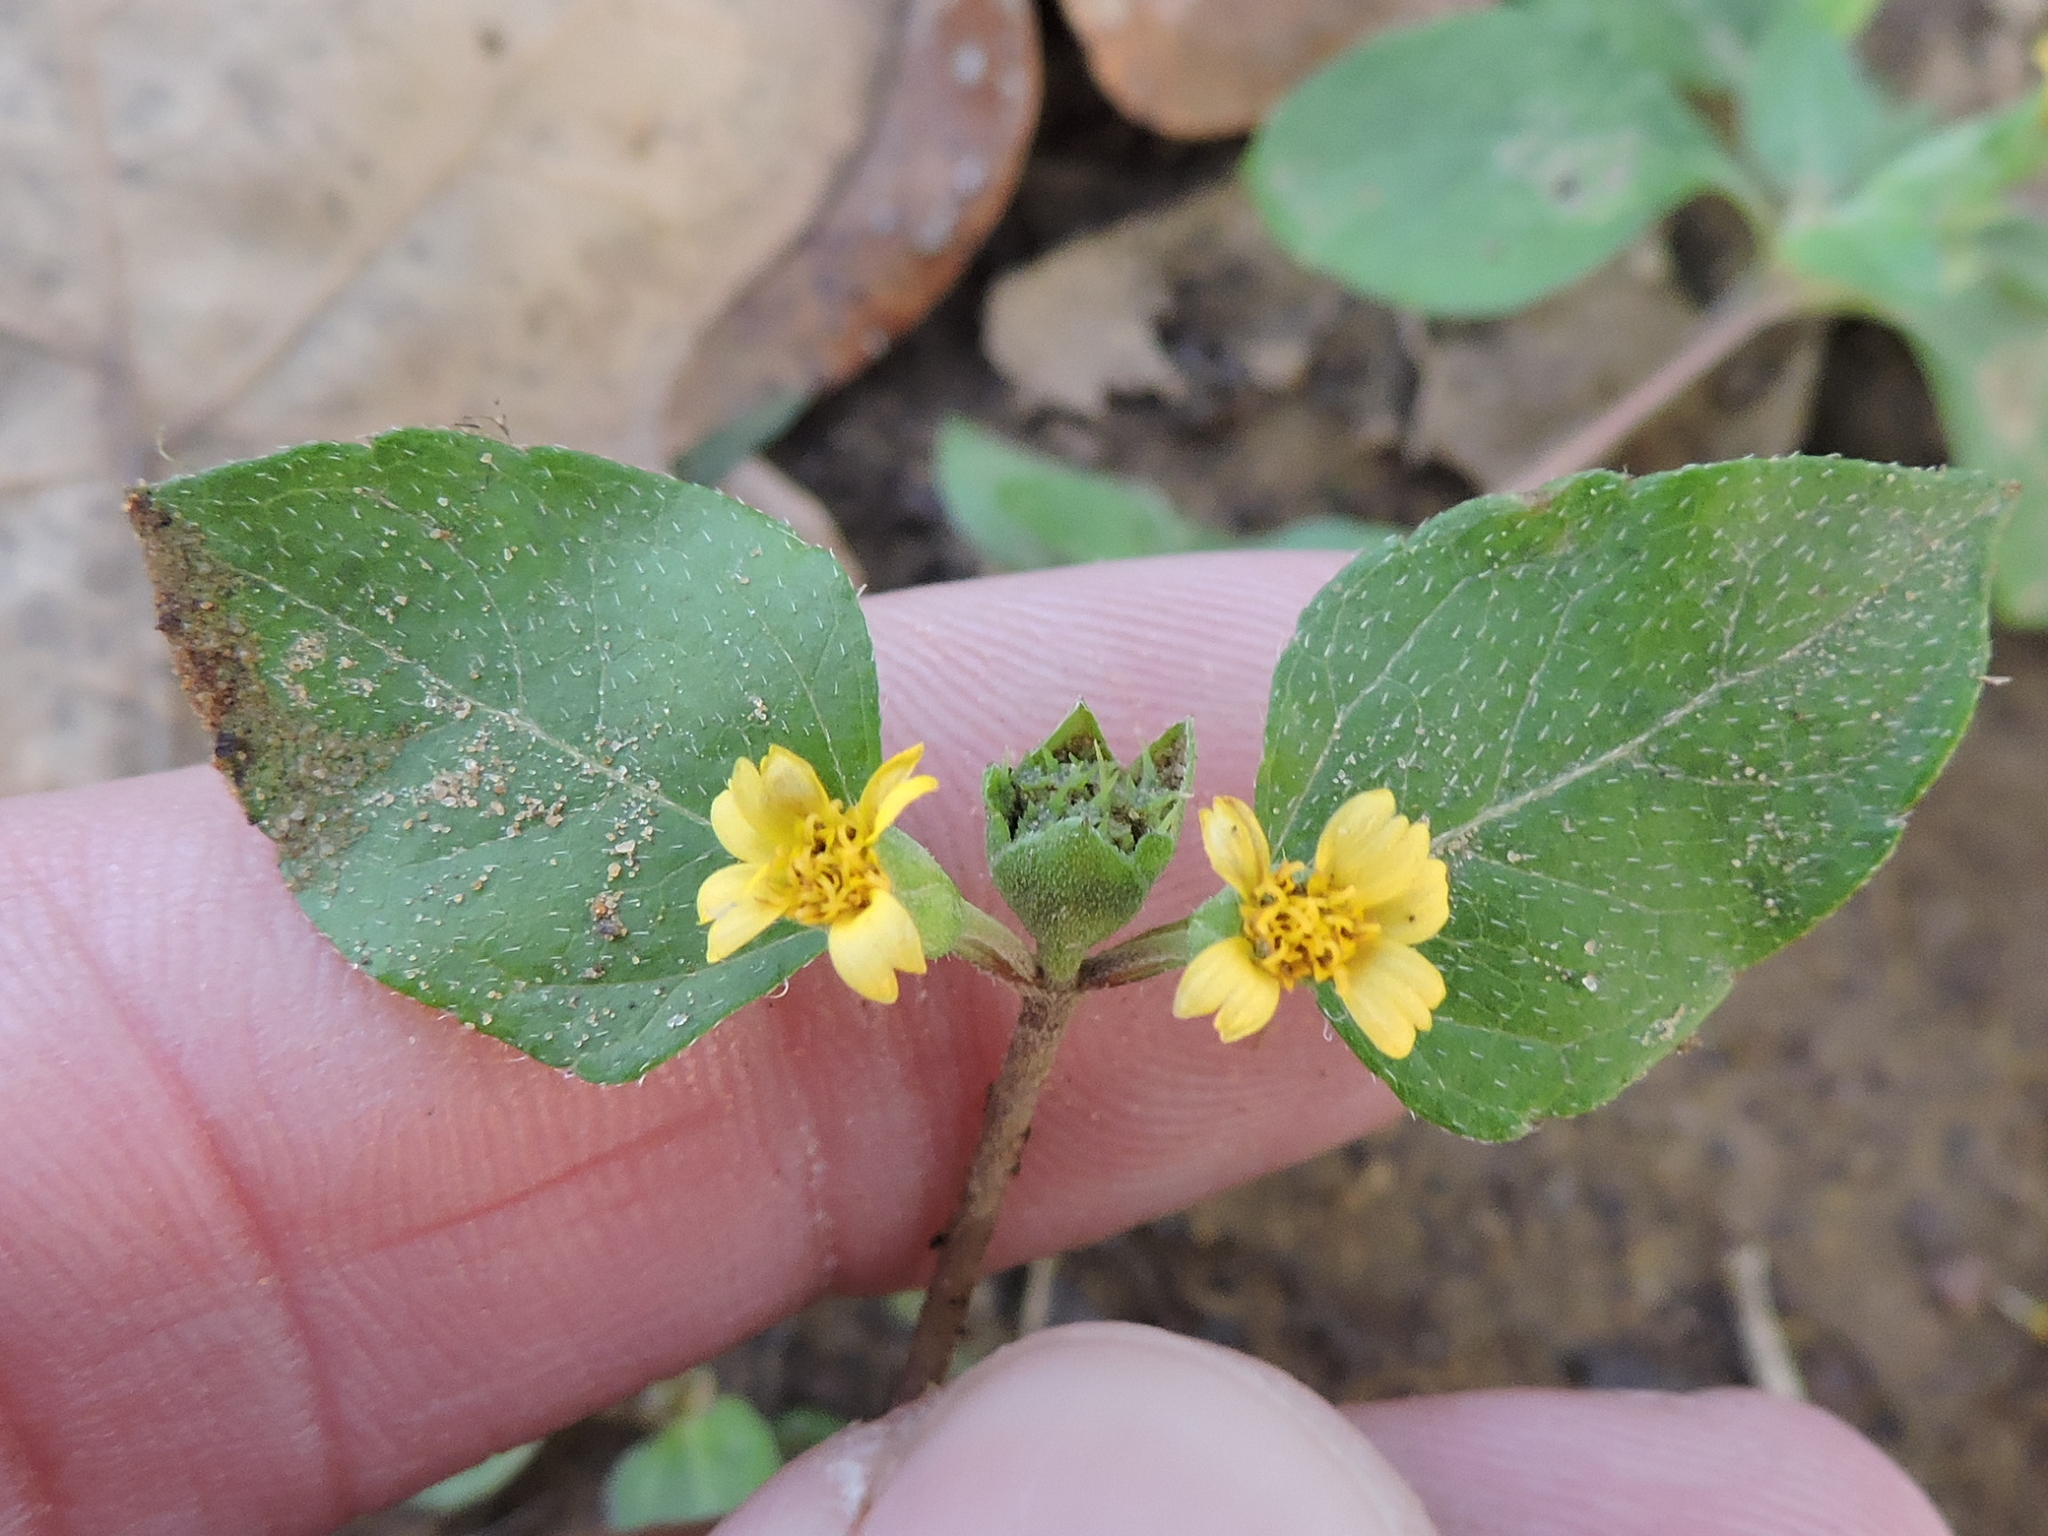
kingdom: Plantae
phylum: Tracheophyta
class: Magnoliopsida
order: Asterales
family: Asteraceae
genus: Calyptocarpus
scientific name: Calyptocarpus vialis
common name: Straggler daisy
